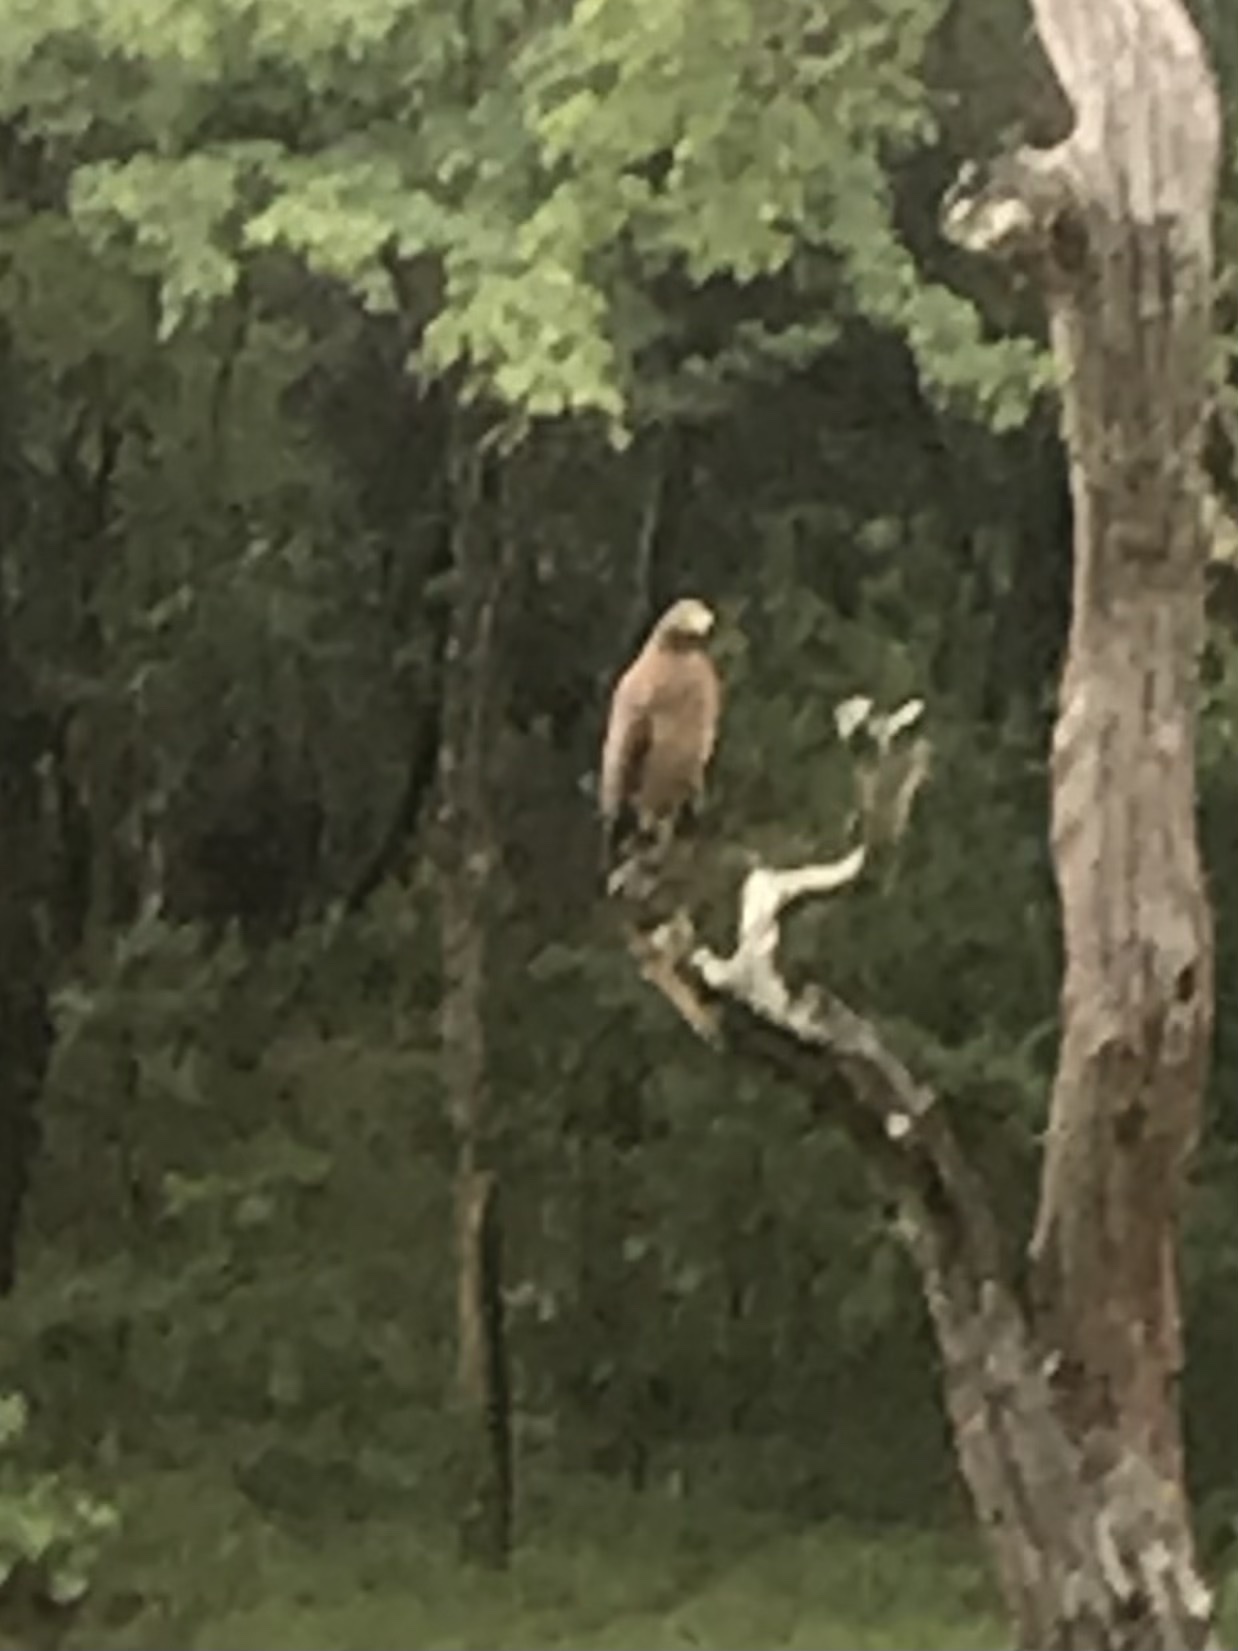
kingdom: Animalia
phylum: Chordata
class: Aves
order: Accipitriformes
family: Accipitridae
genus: Spilornis
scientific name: Spilornis cheela
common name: Crested serpent eagle
